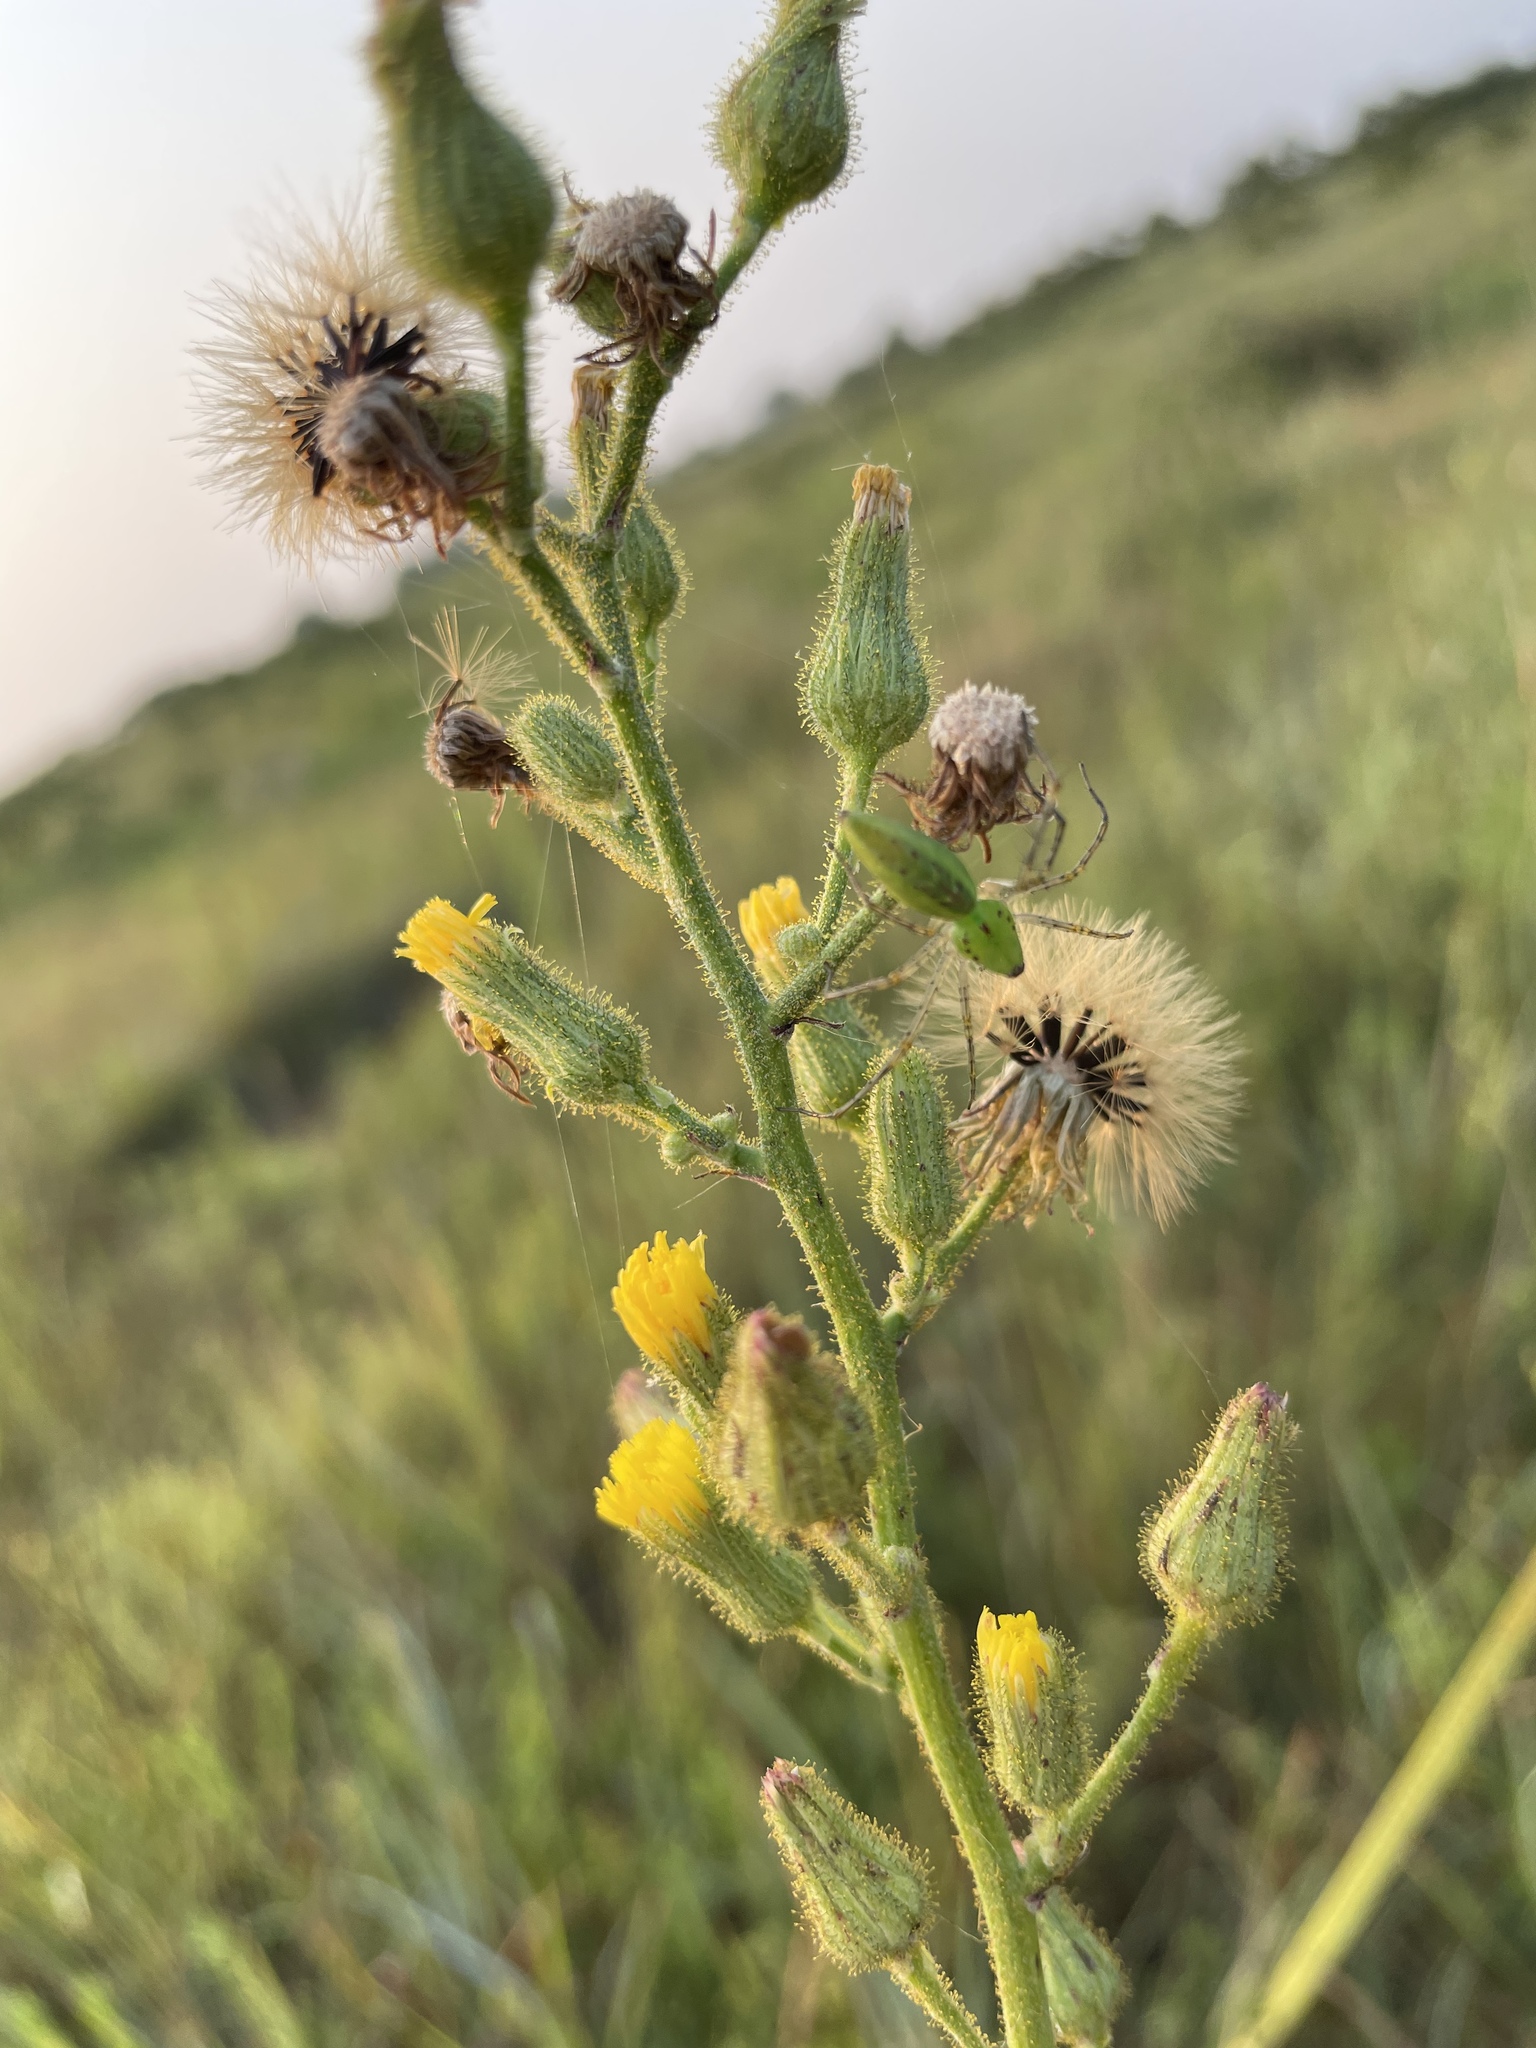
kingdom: Animalia
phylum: Arthropoda
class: Arachnida
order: Araneae
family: Oxyopidae
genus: Peucetia
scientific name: Peucetia viridans
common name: Lynx spiders
